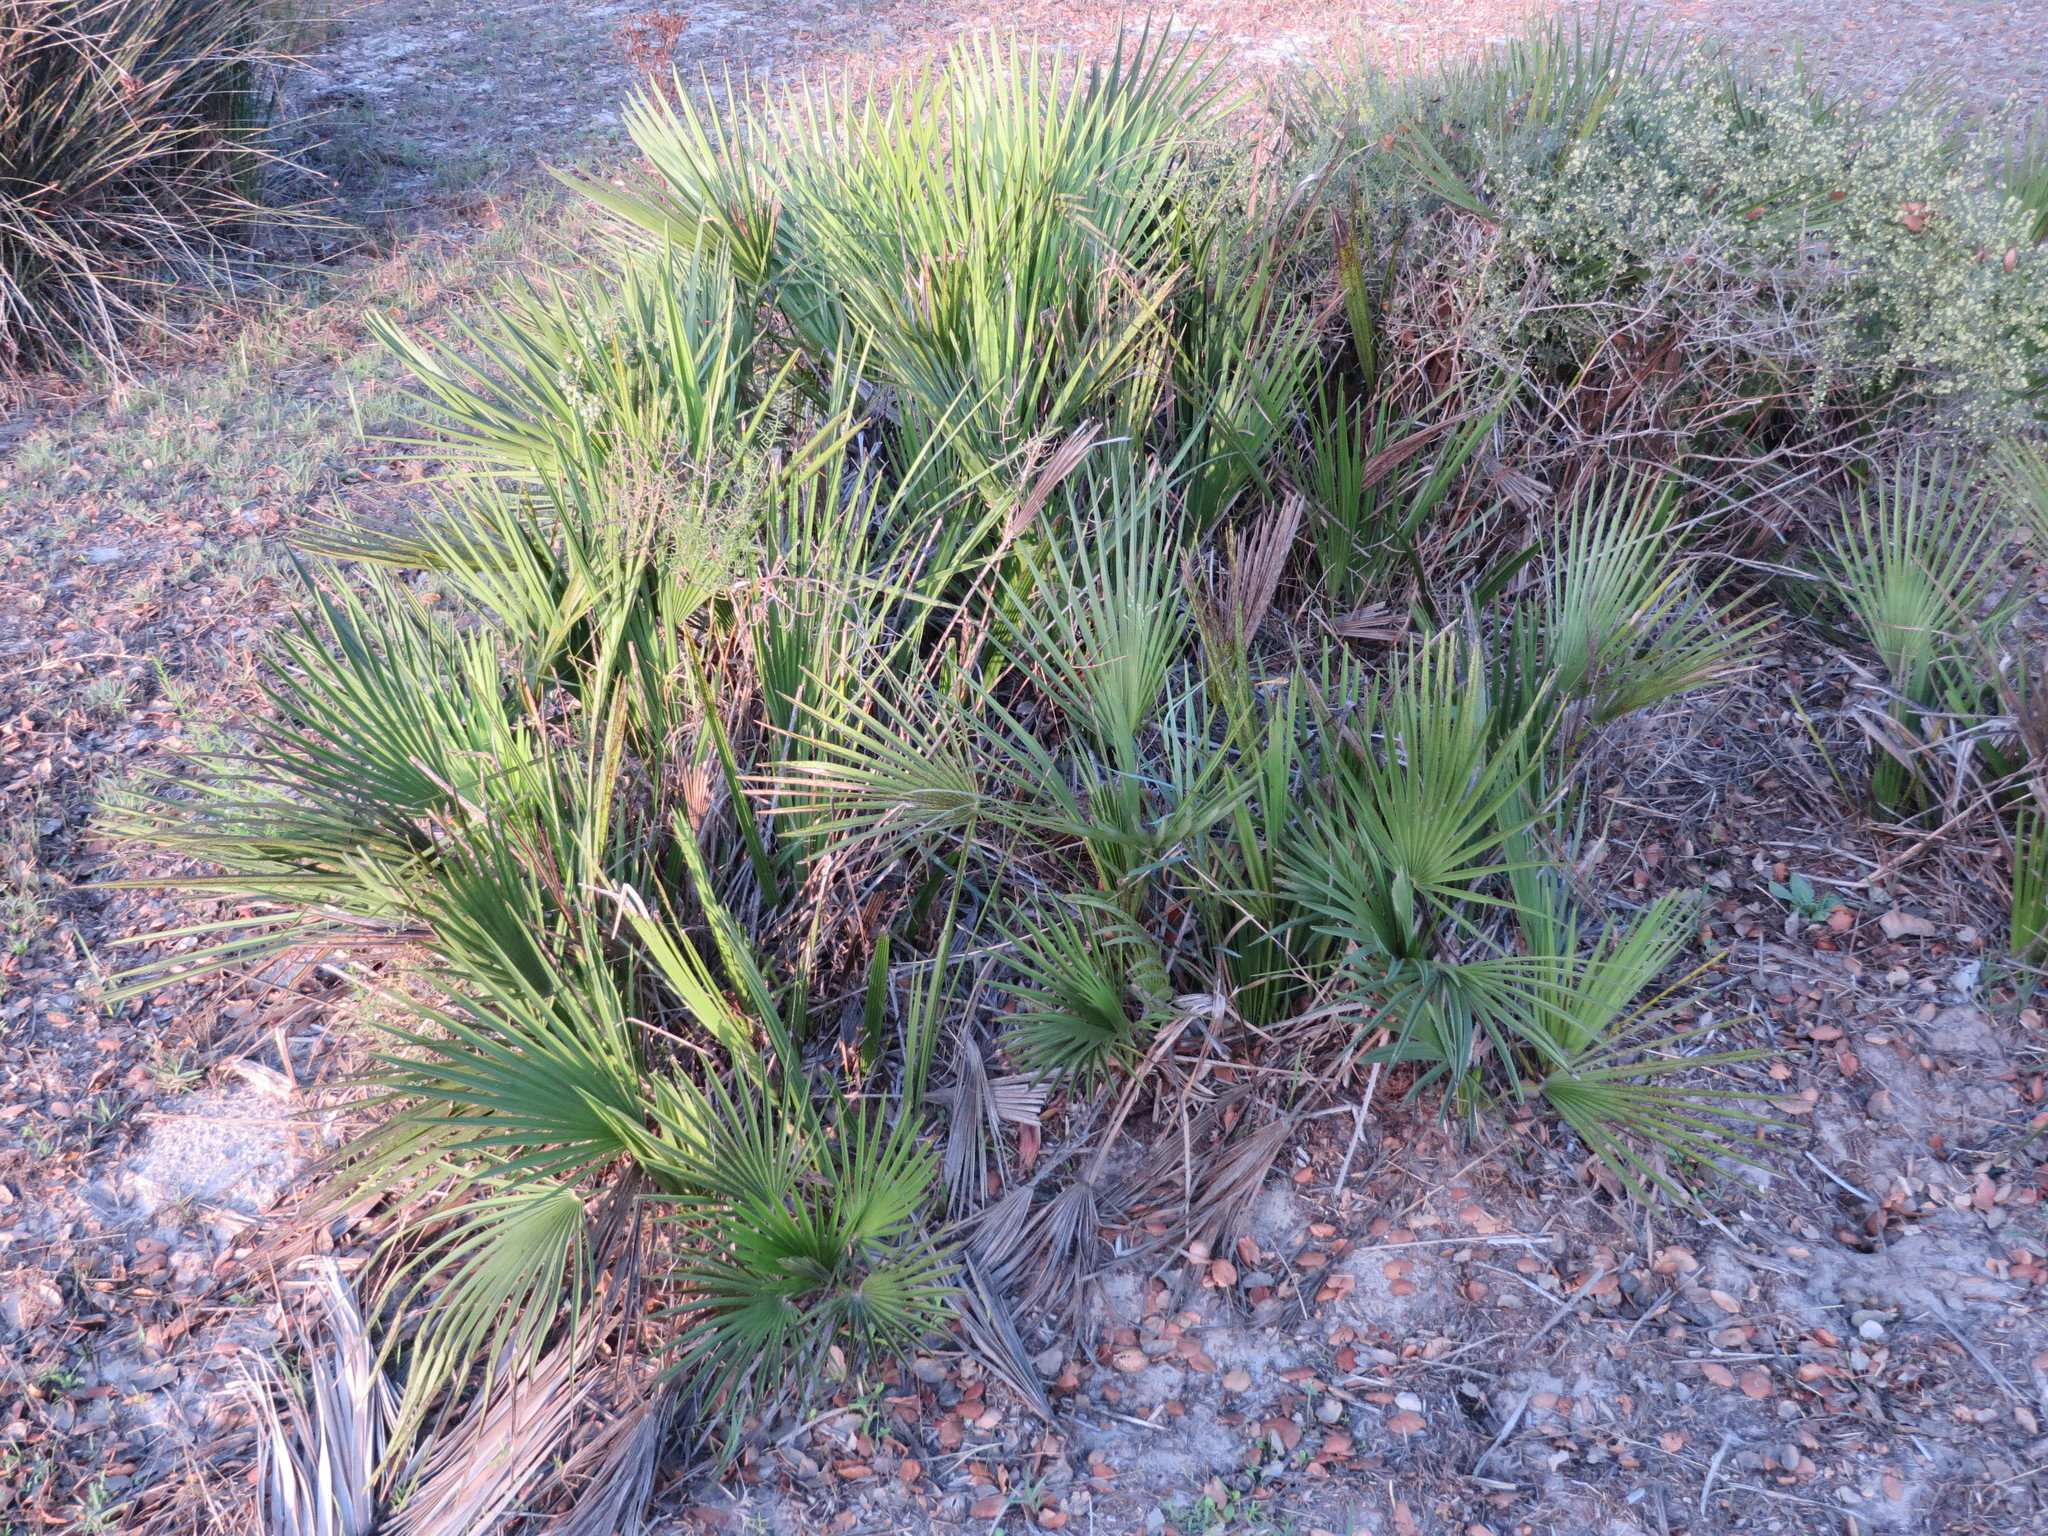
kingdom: Plantae
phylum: Tracheophyta
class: Liliopsida
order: Arecales
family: Arecaceae
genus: Chamaerops
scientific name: Chamaerops humilis
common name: Dwarf fan palm
